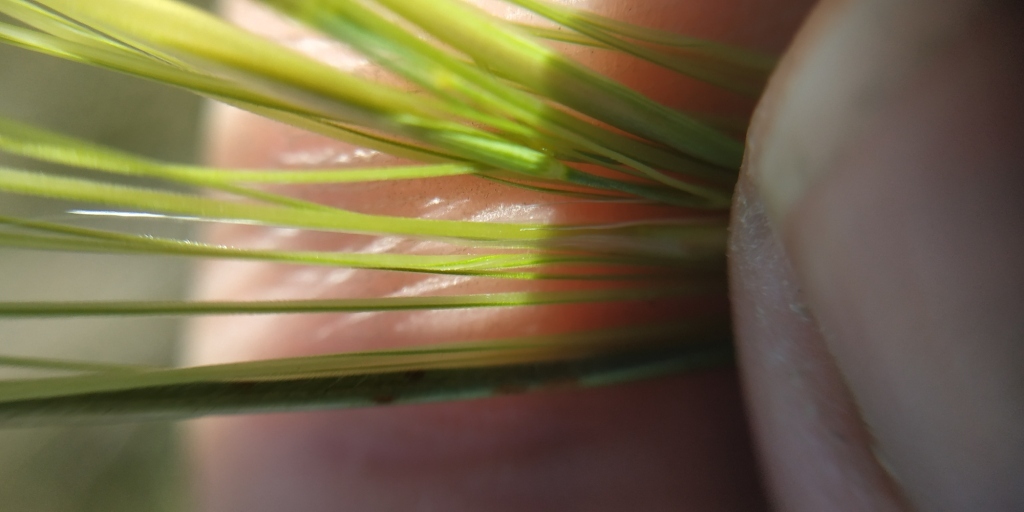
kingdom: Plantae
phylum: Tracheophyta
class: Liliopsida
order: Poales
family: Poaceae
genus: Stipa
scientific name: Stipa capillata
